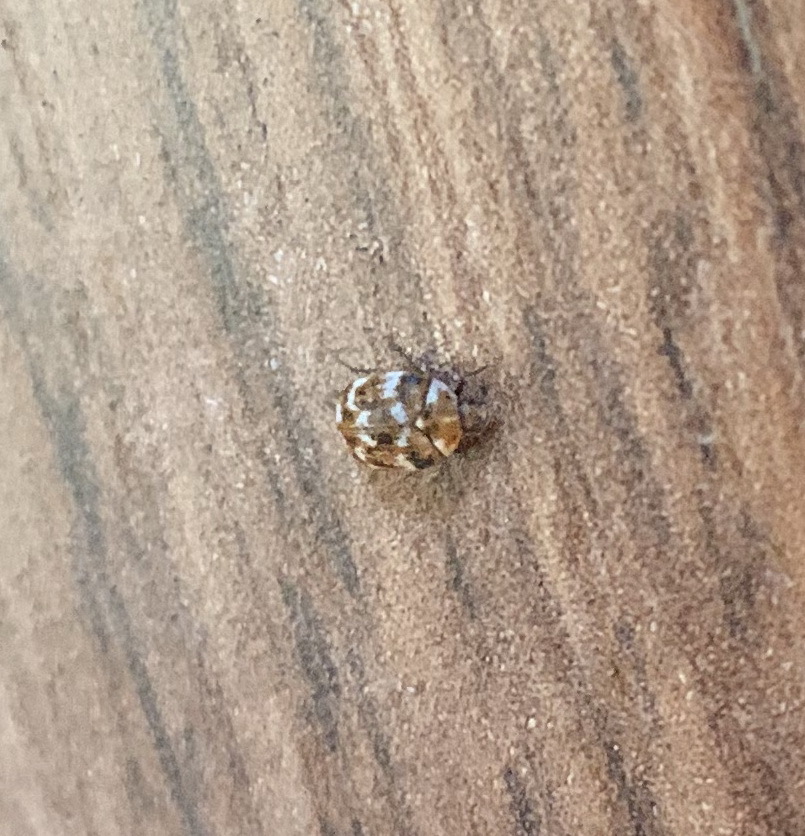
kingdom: Animalia
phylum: Arthropoda
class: Insecta
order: Coleoptera
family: Dermestidae
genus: Anthrenus
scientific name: Anthrenus verbasci
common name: Varied carpet beetle
